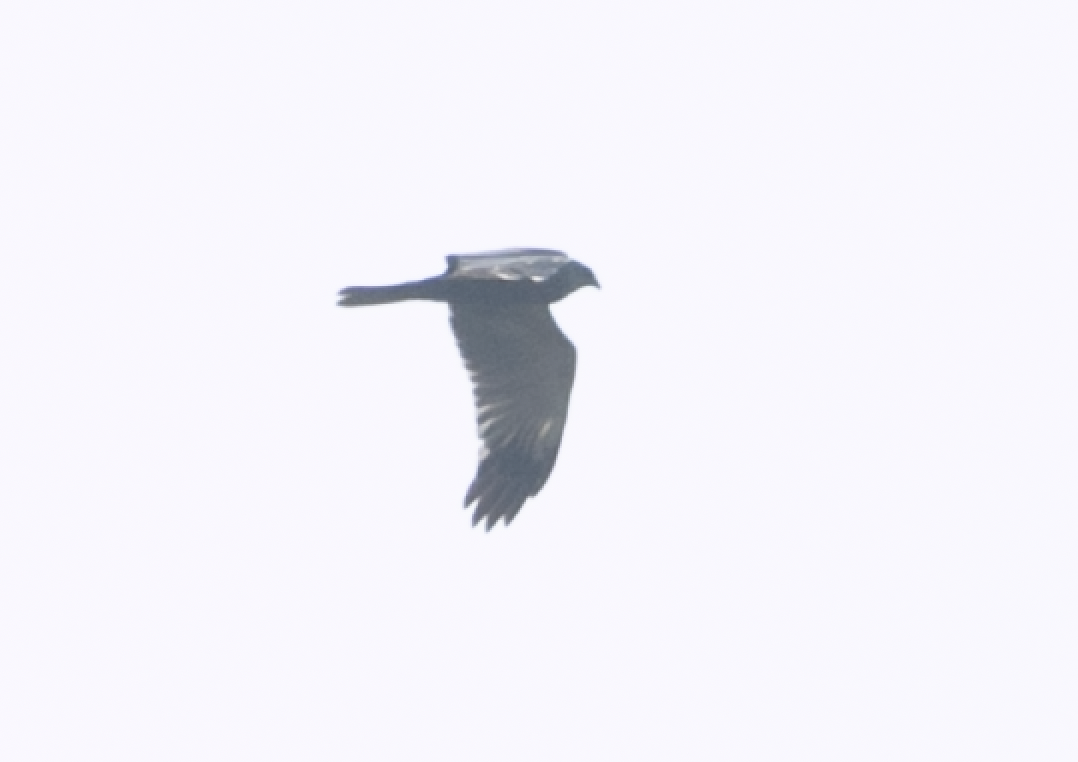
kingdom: Animalia
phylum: Chordata
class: Aves
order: Accipitriformes
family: Accipitridae
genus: Circus
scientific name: Circus aeruginosus
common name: Western marsh harrier
